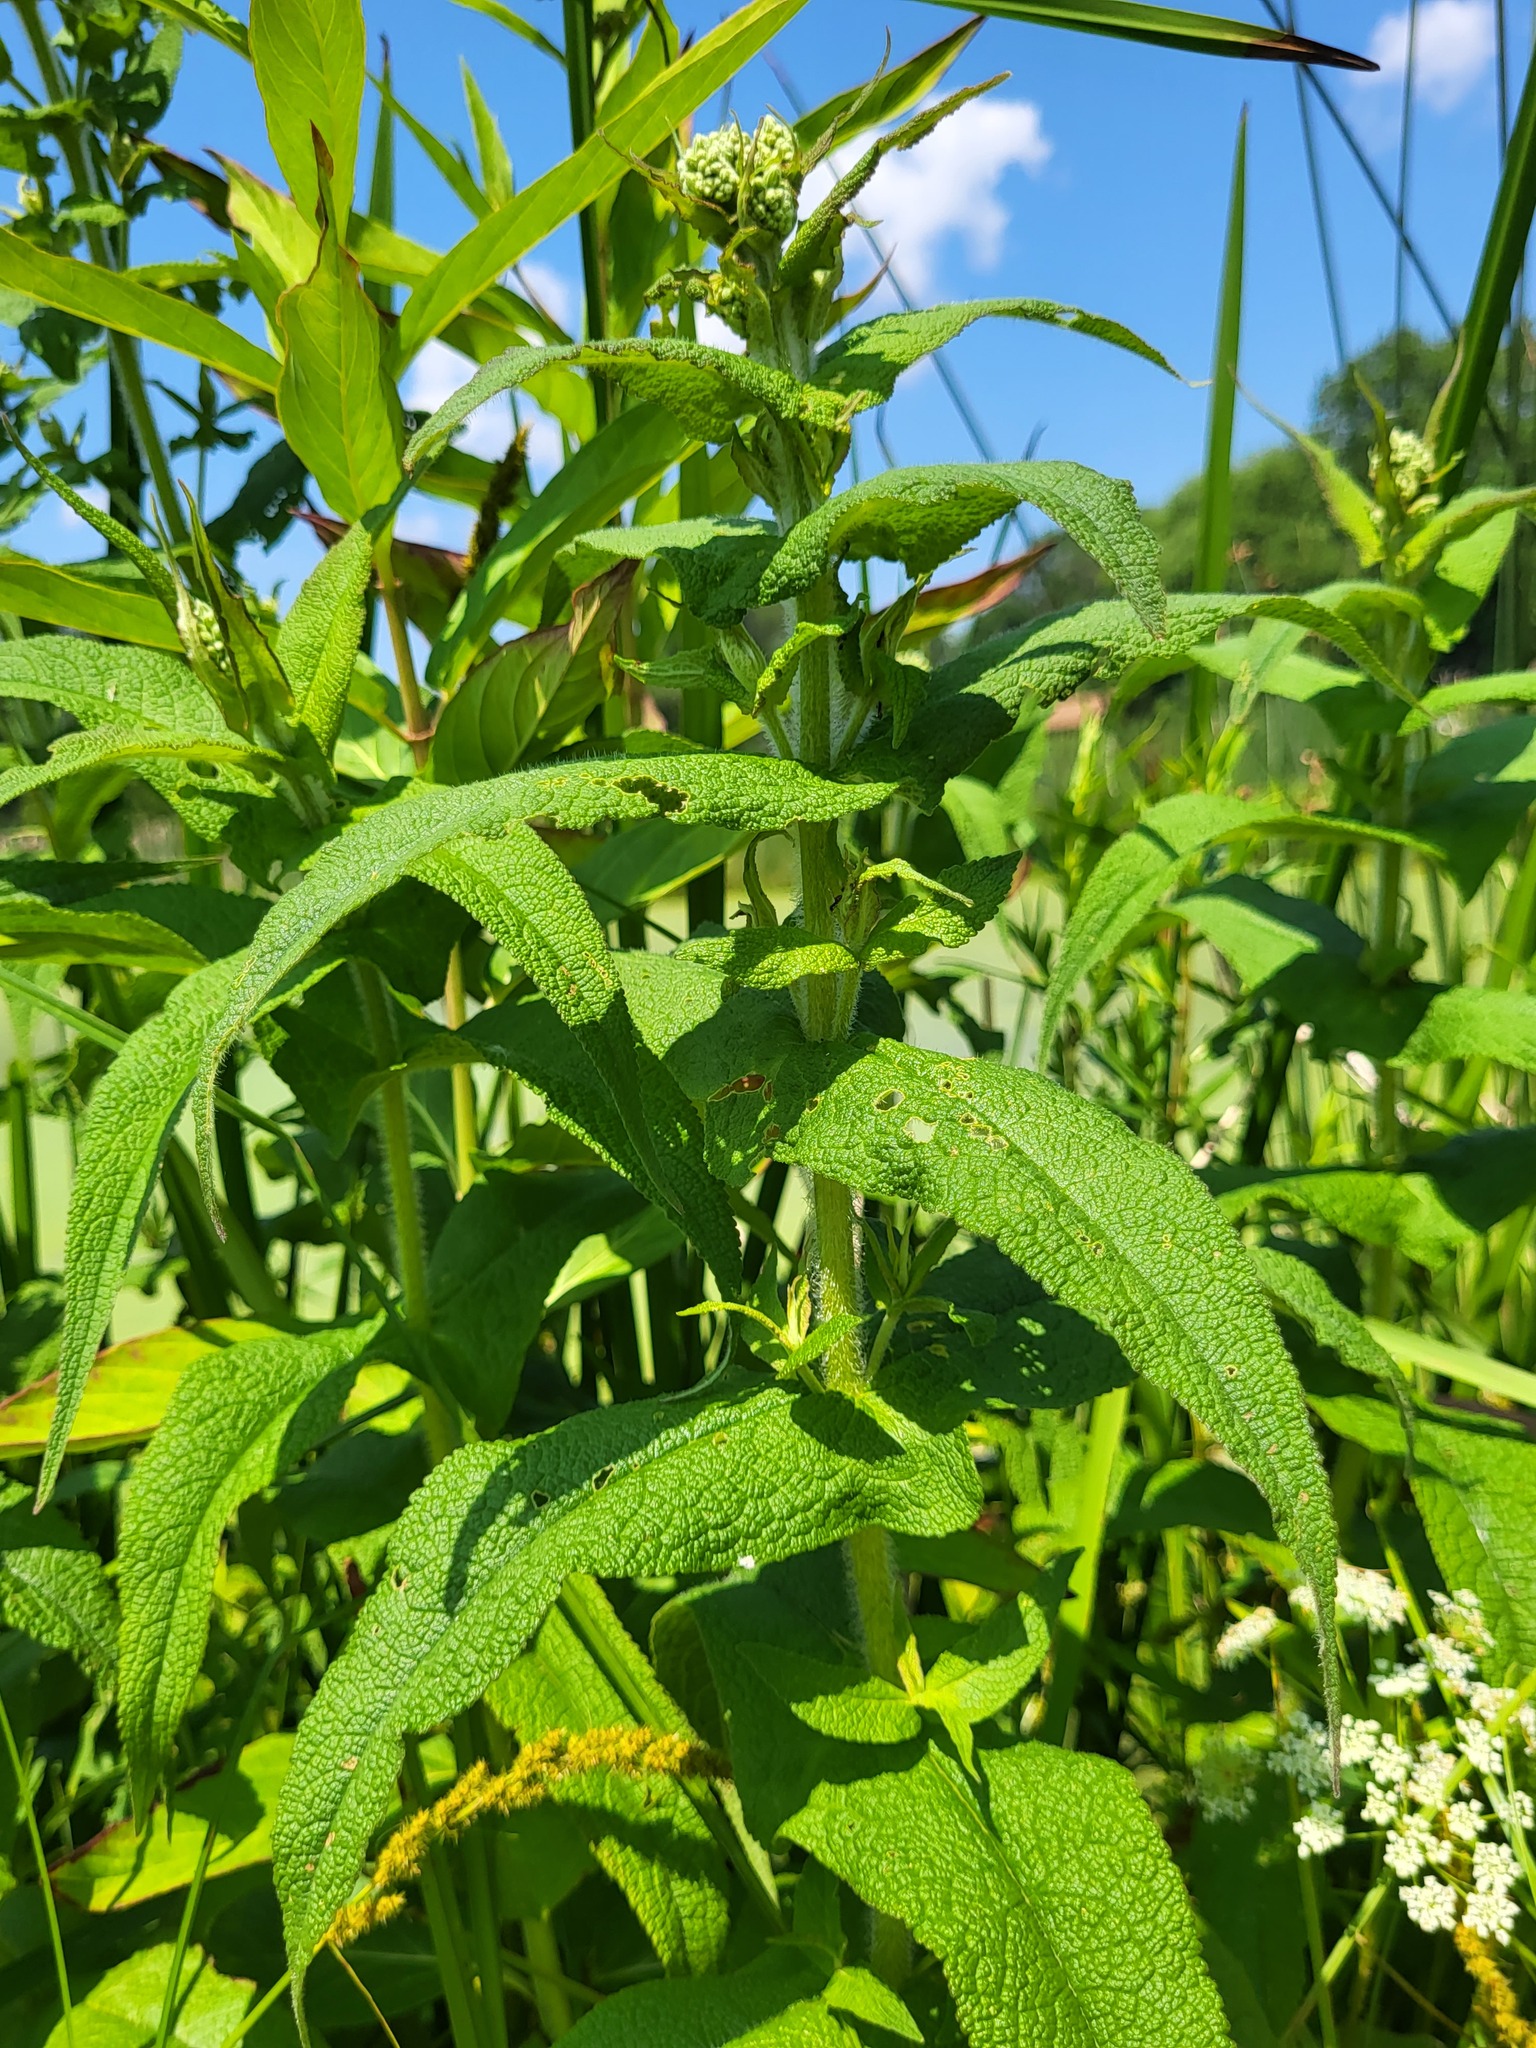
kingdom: Plantae
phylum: Tracheophyta
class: Magnoliopsida
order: Asterales
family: Asteraceae
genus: Eupatorium
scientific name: Eupatorium perfoliatum
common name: Boneset
